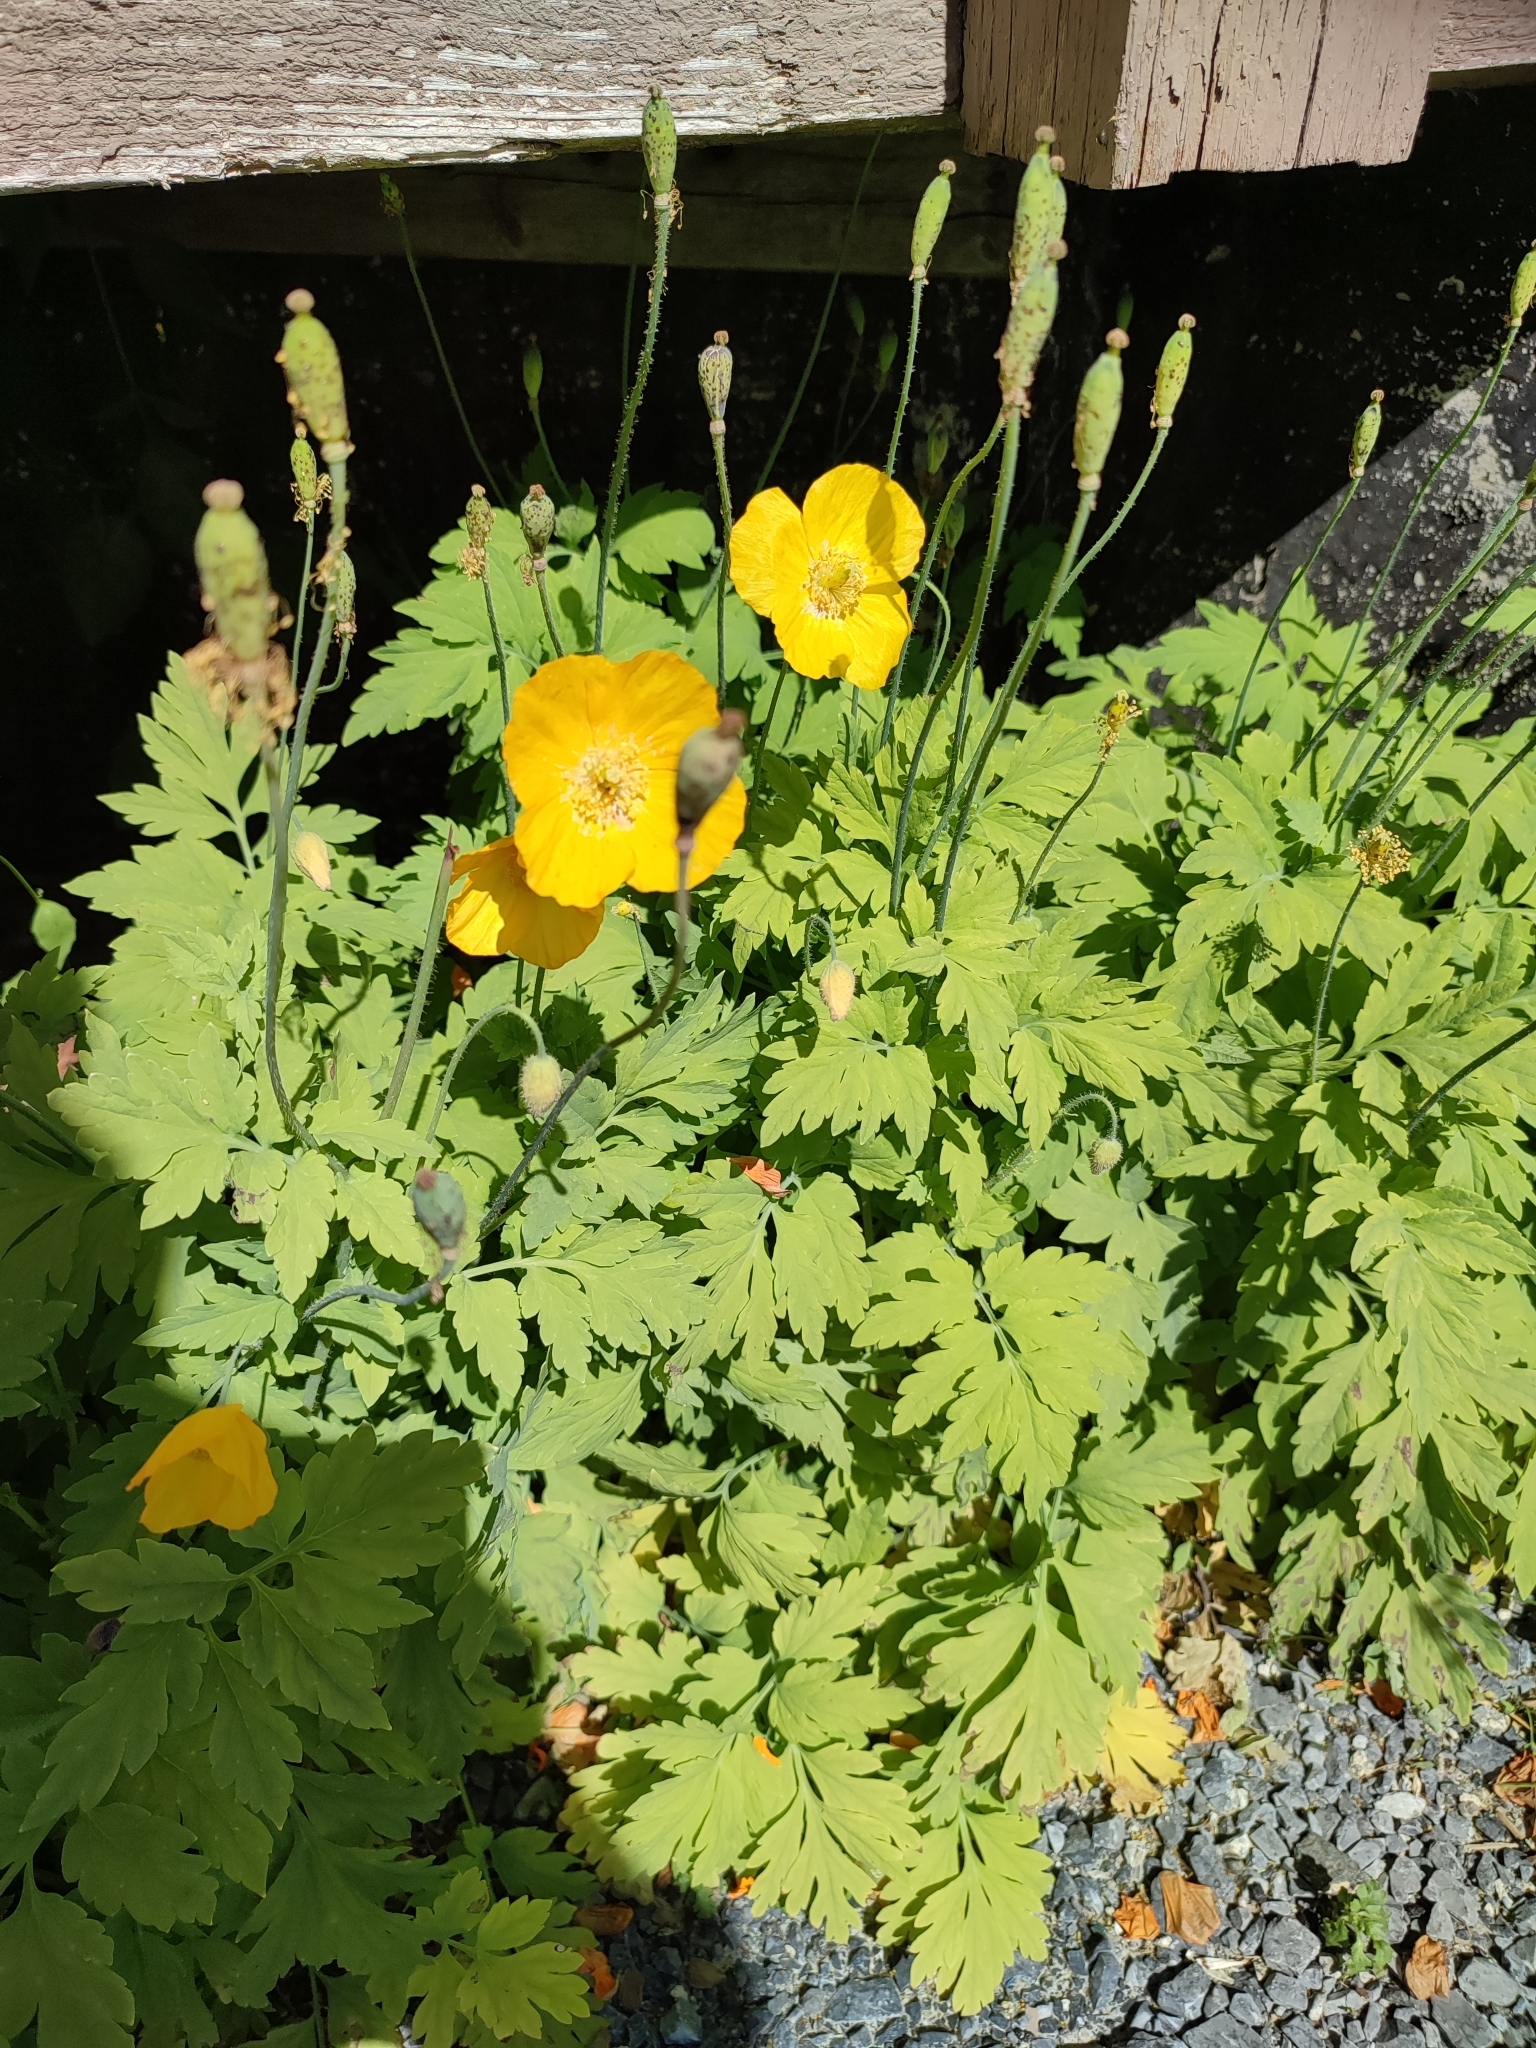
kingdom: Plantae
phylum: Tracheophyta
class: Magnoliopsida
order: Ranunculales
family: Papaveraceae
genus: Papaver
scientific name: Papaver cambricum
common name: Poppy
